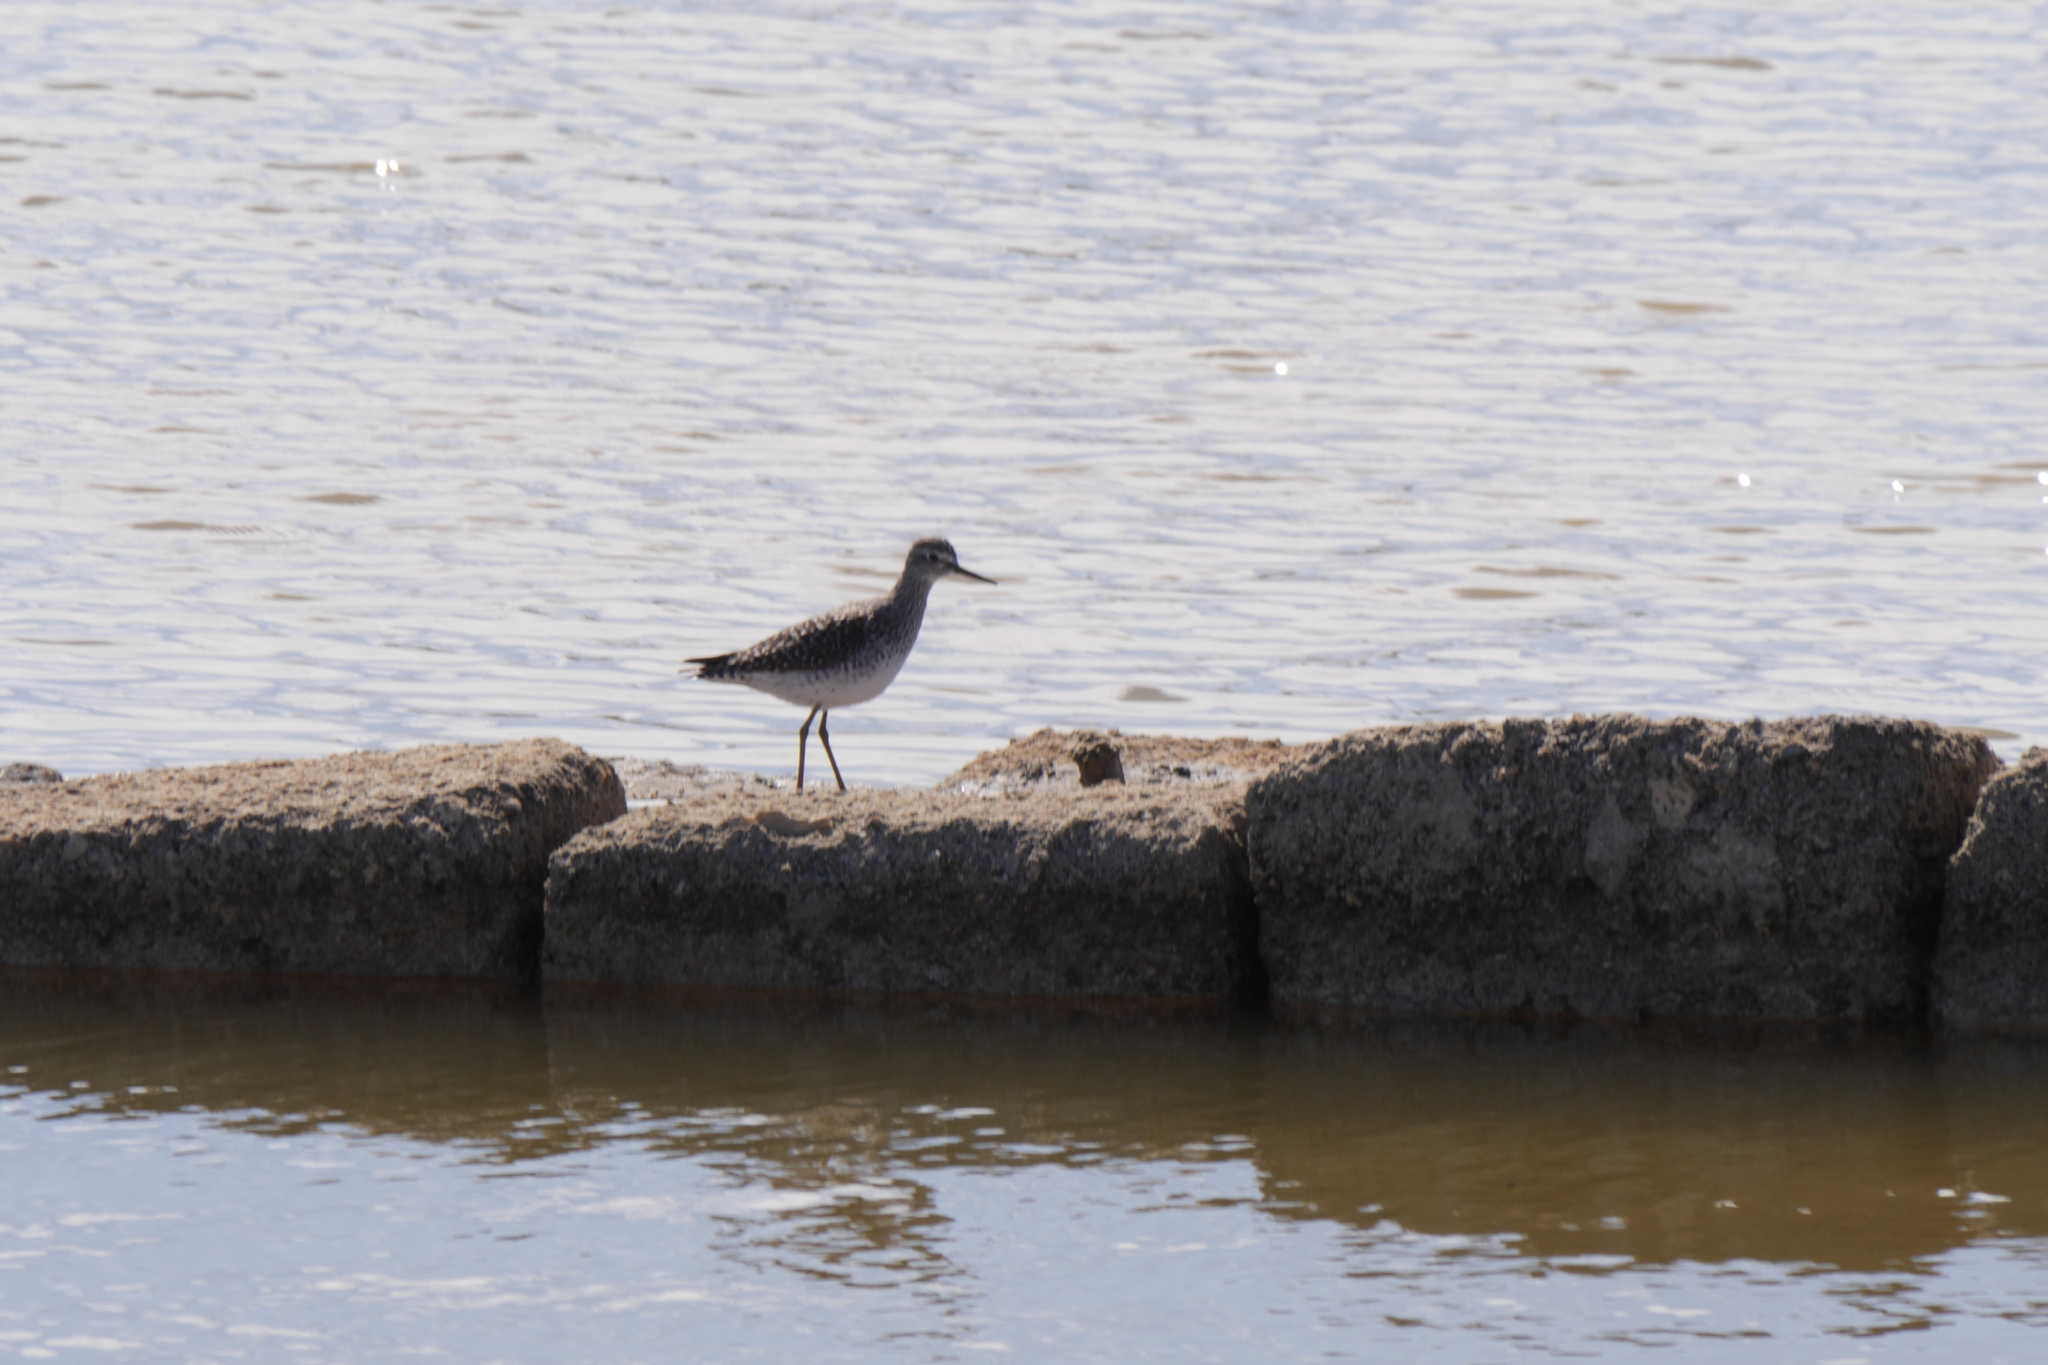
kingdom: Animalia
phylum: Chordata
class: Aves
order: Charadriiformes
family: Scolopacidae
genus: Tringa
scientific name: Tringa glareola
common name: Wood sandpiper
